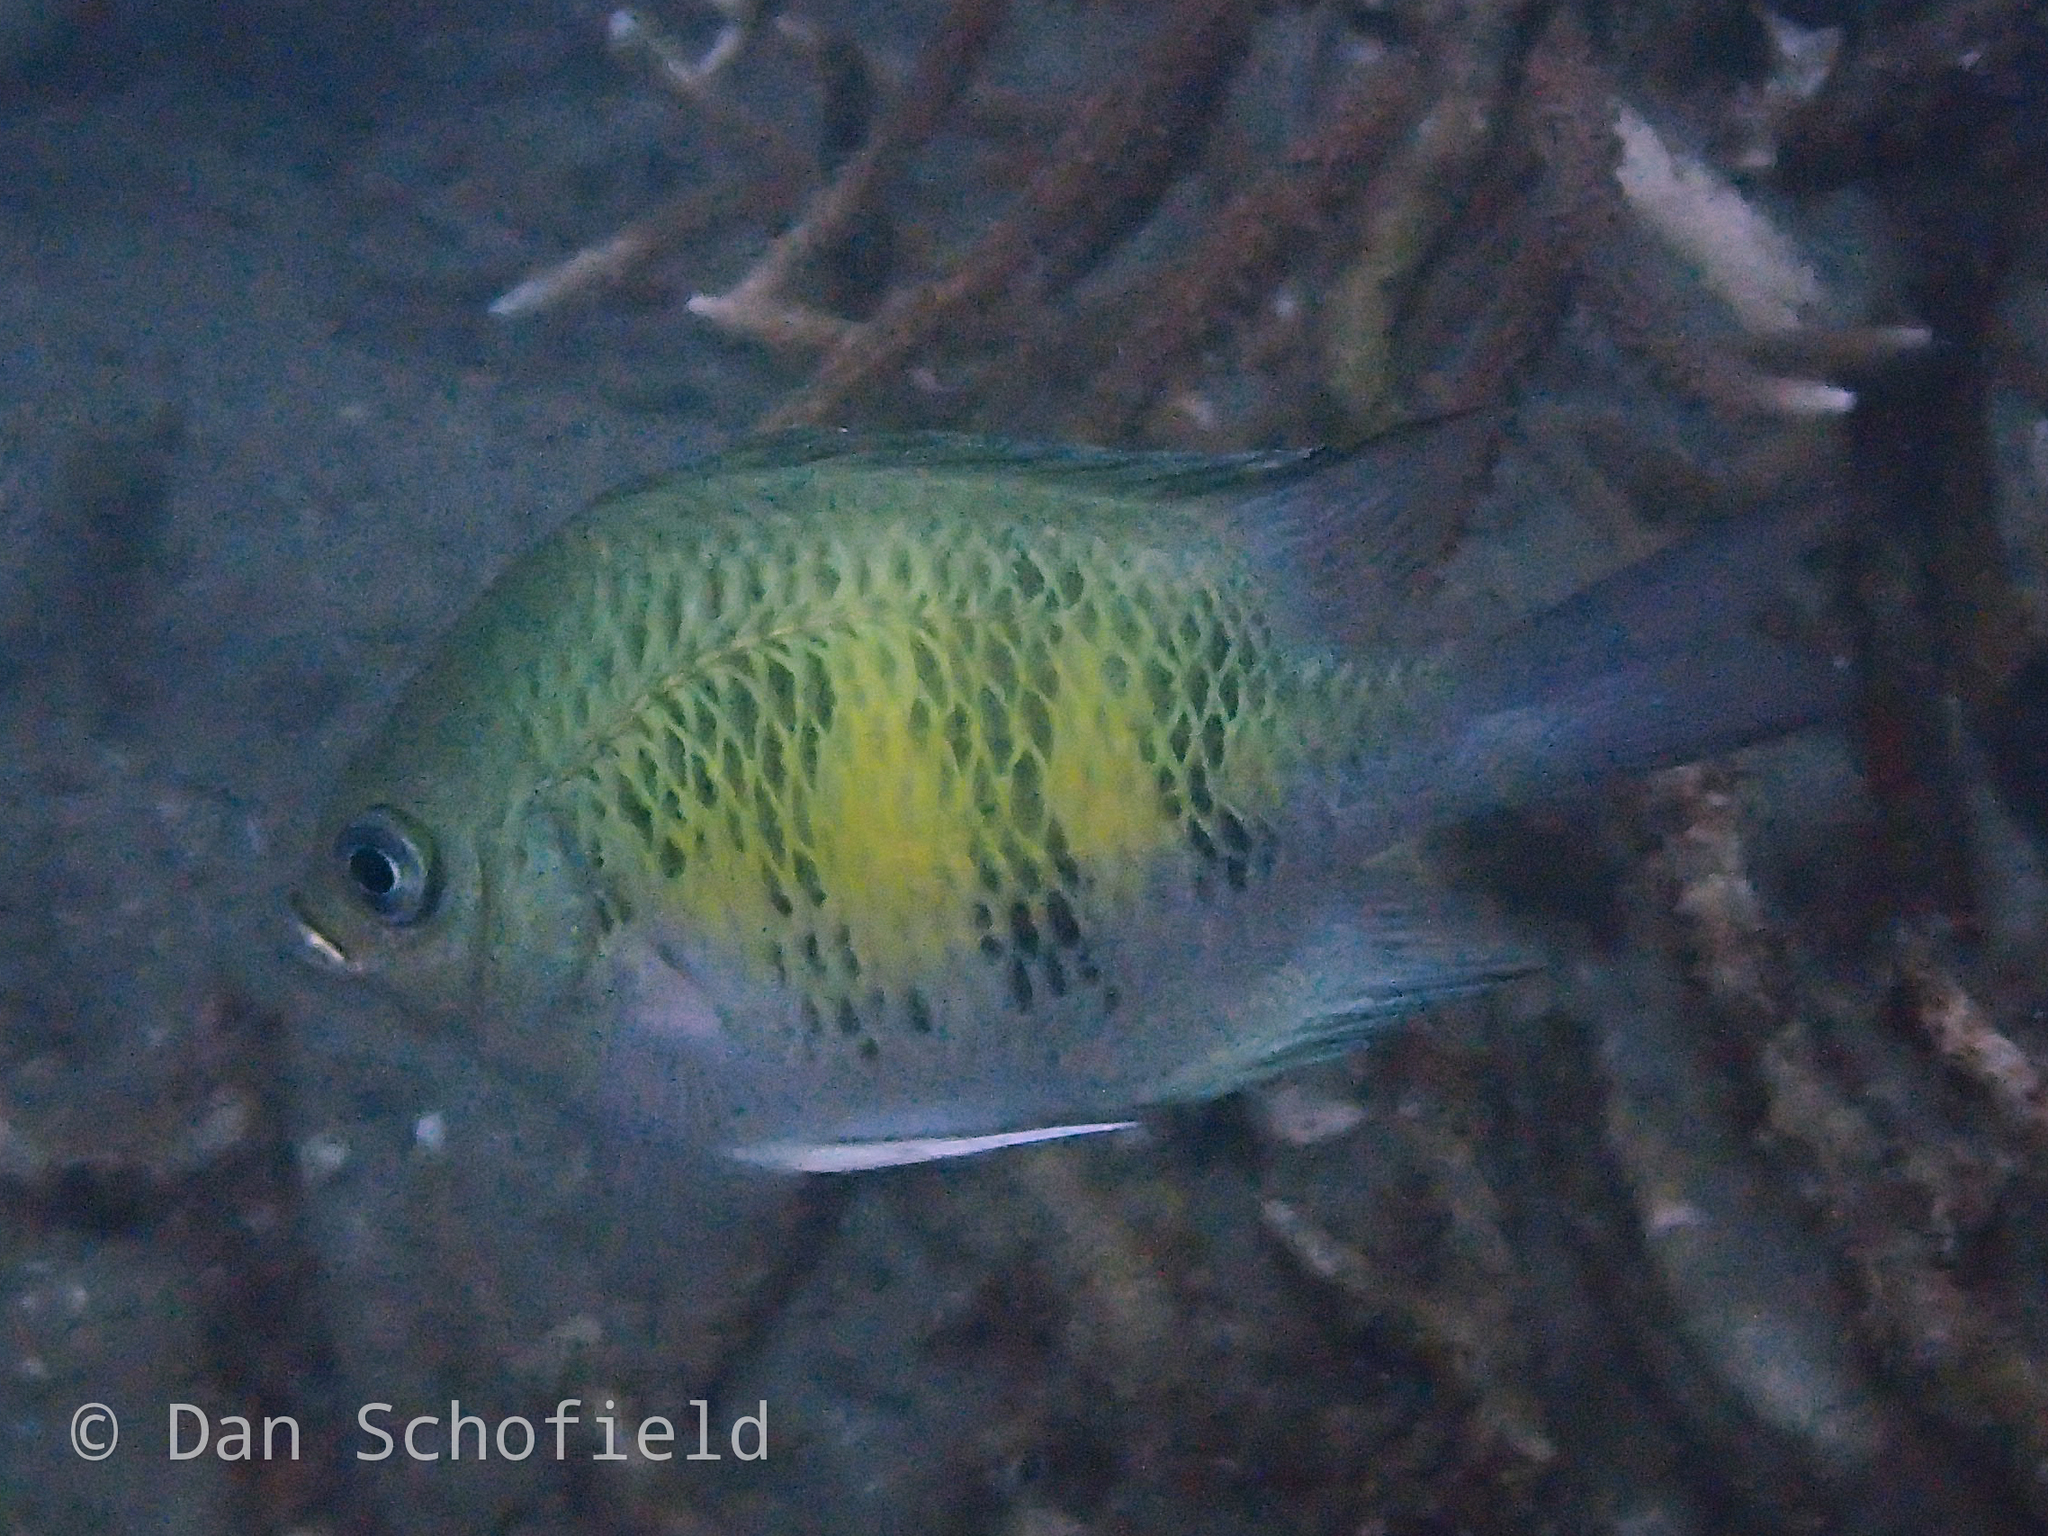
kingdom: Animalia
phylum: Chordata
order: Perciformes
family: Pomacentridae
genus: Amblyglyphidodon
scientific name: Amblyglyphidodon curacao
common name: Staghorn damsel
